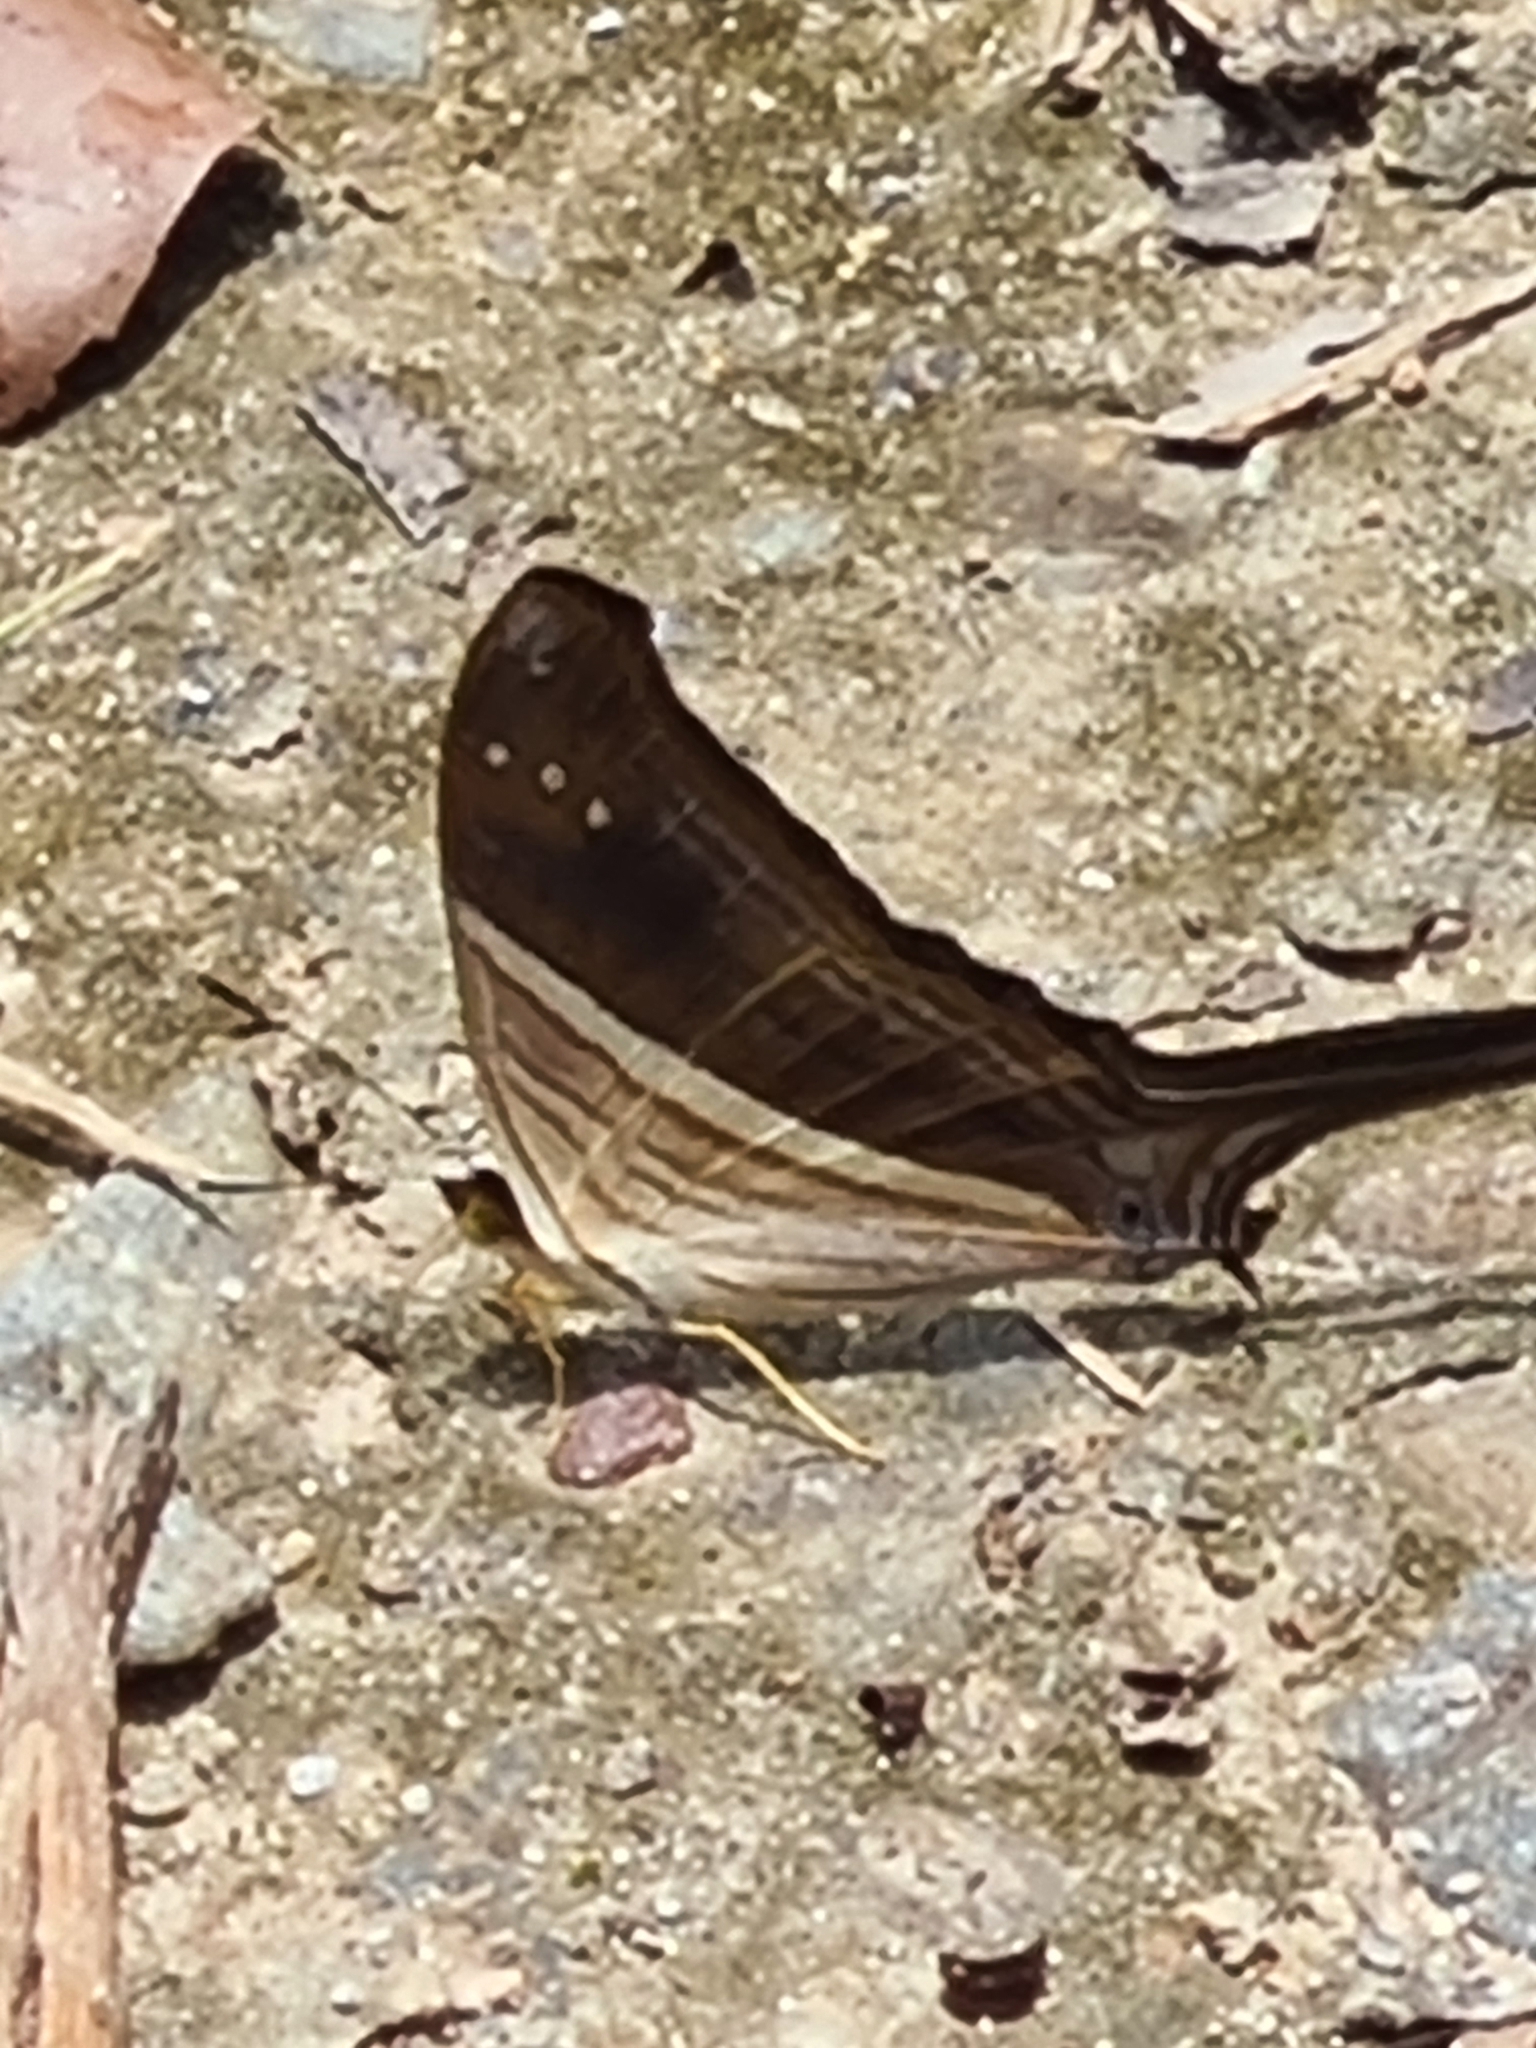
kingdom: Animalia
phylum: Arthropoda
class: Insecta
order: Lepidoptera
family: Nymphalidae
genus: Marpesia
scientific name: Marpesia chiron
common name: Many-banded daggerwing
